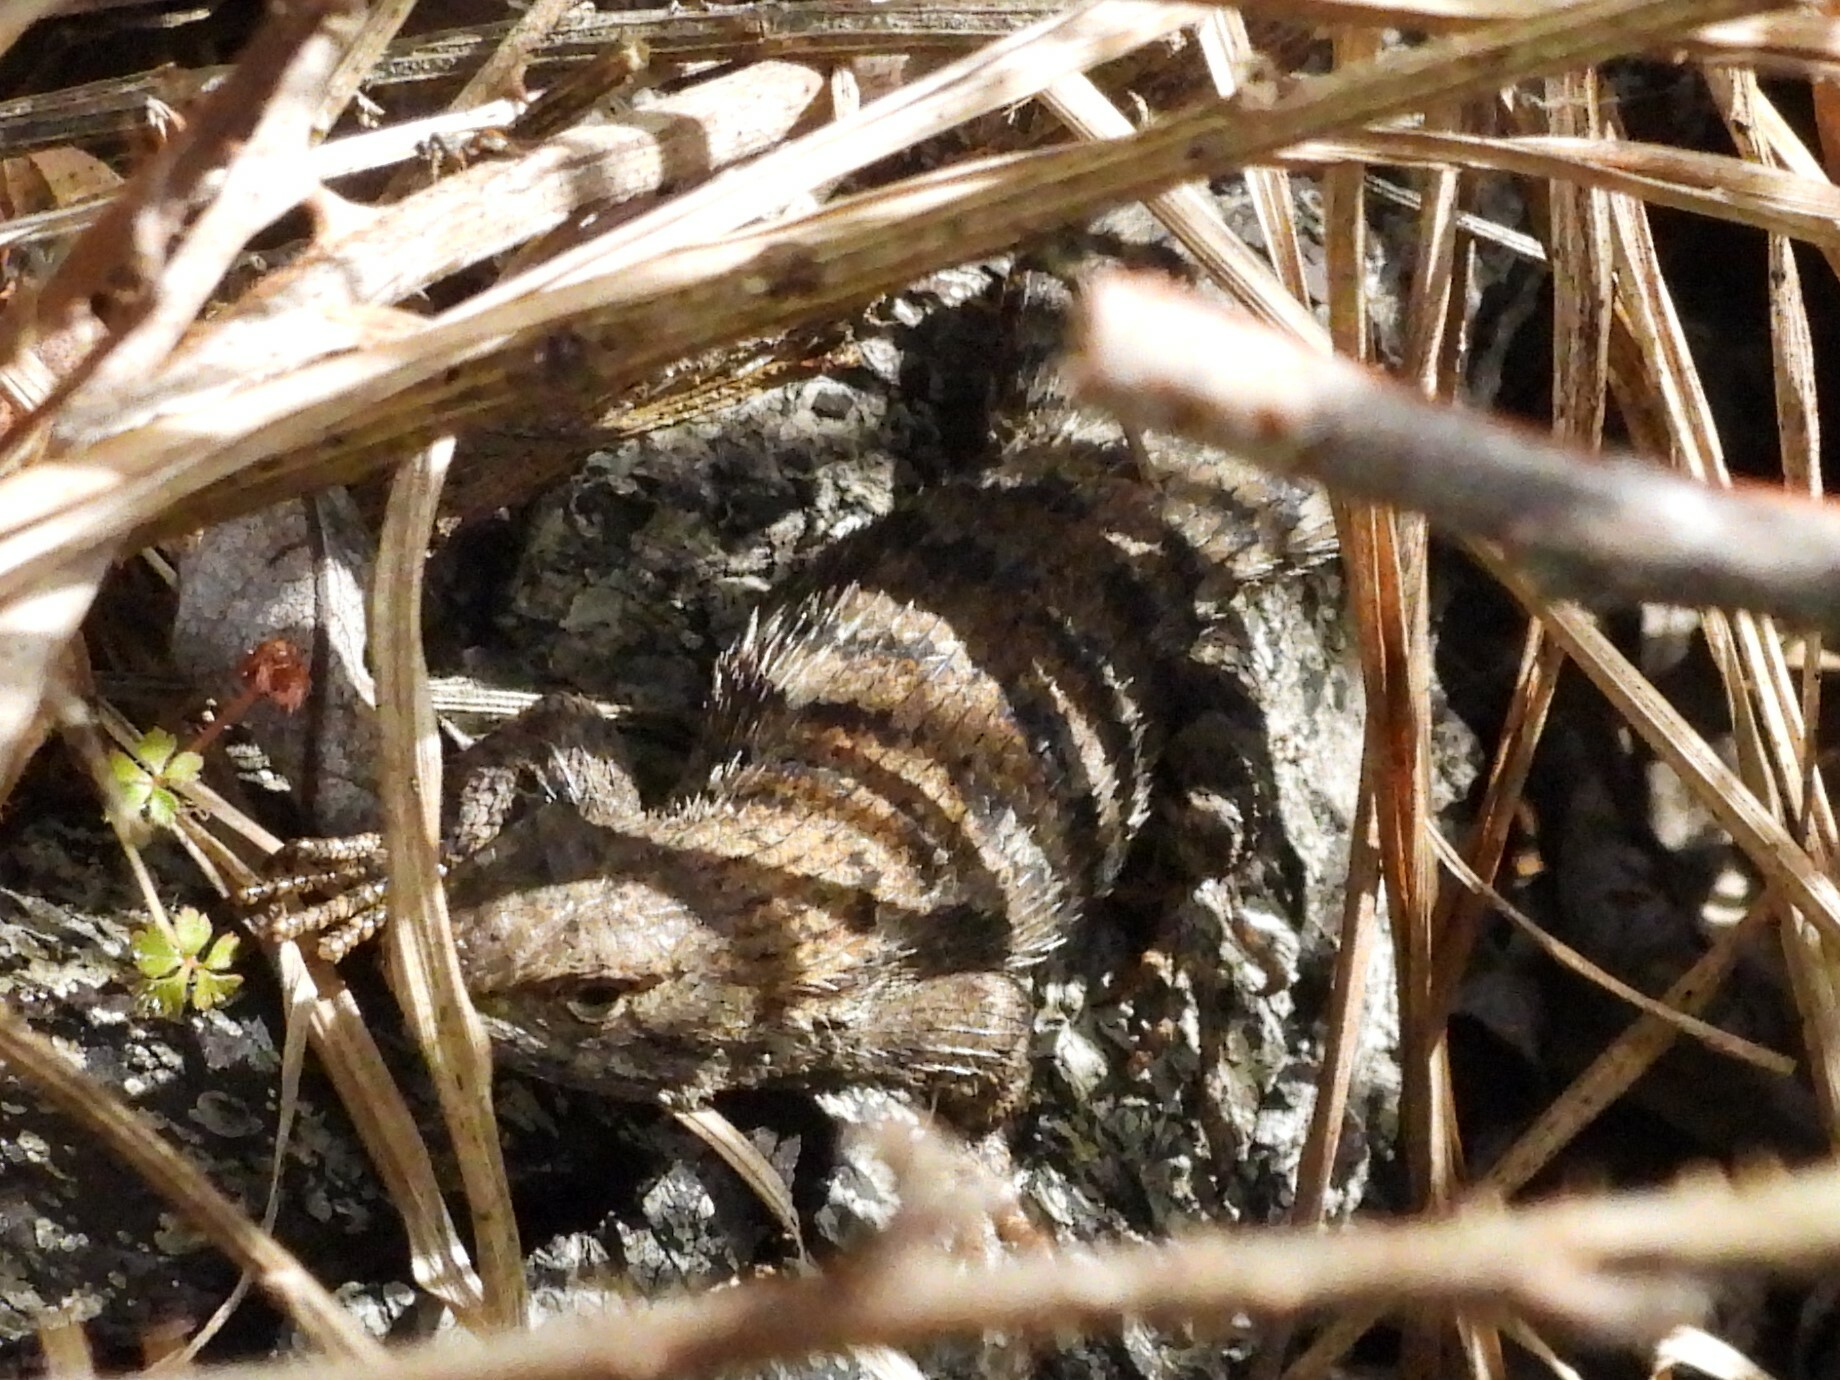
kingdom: Animalia
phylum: Chordata
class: Squamata
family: Phrynosomatidae
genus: Sceloporus
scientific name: Sceloporus occidentalis
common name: Western fence lizard
